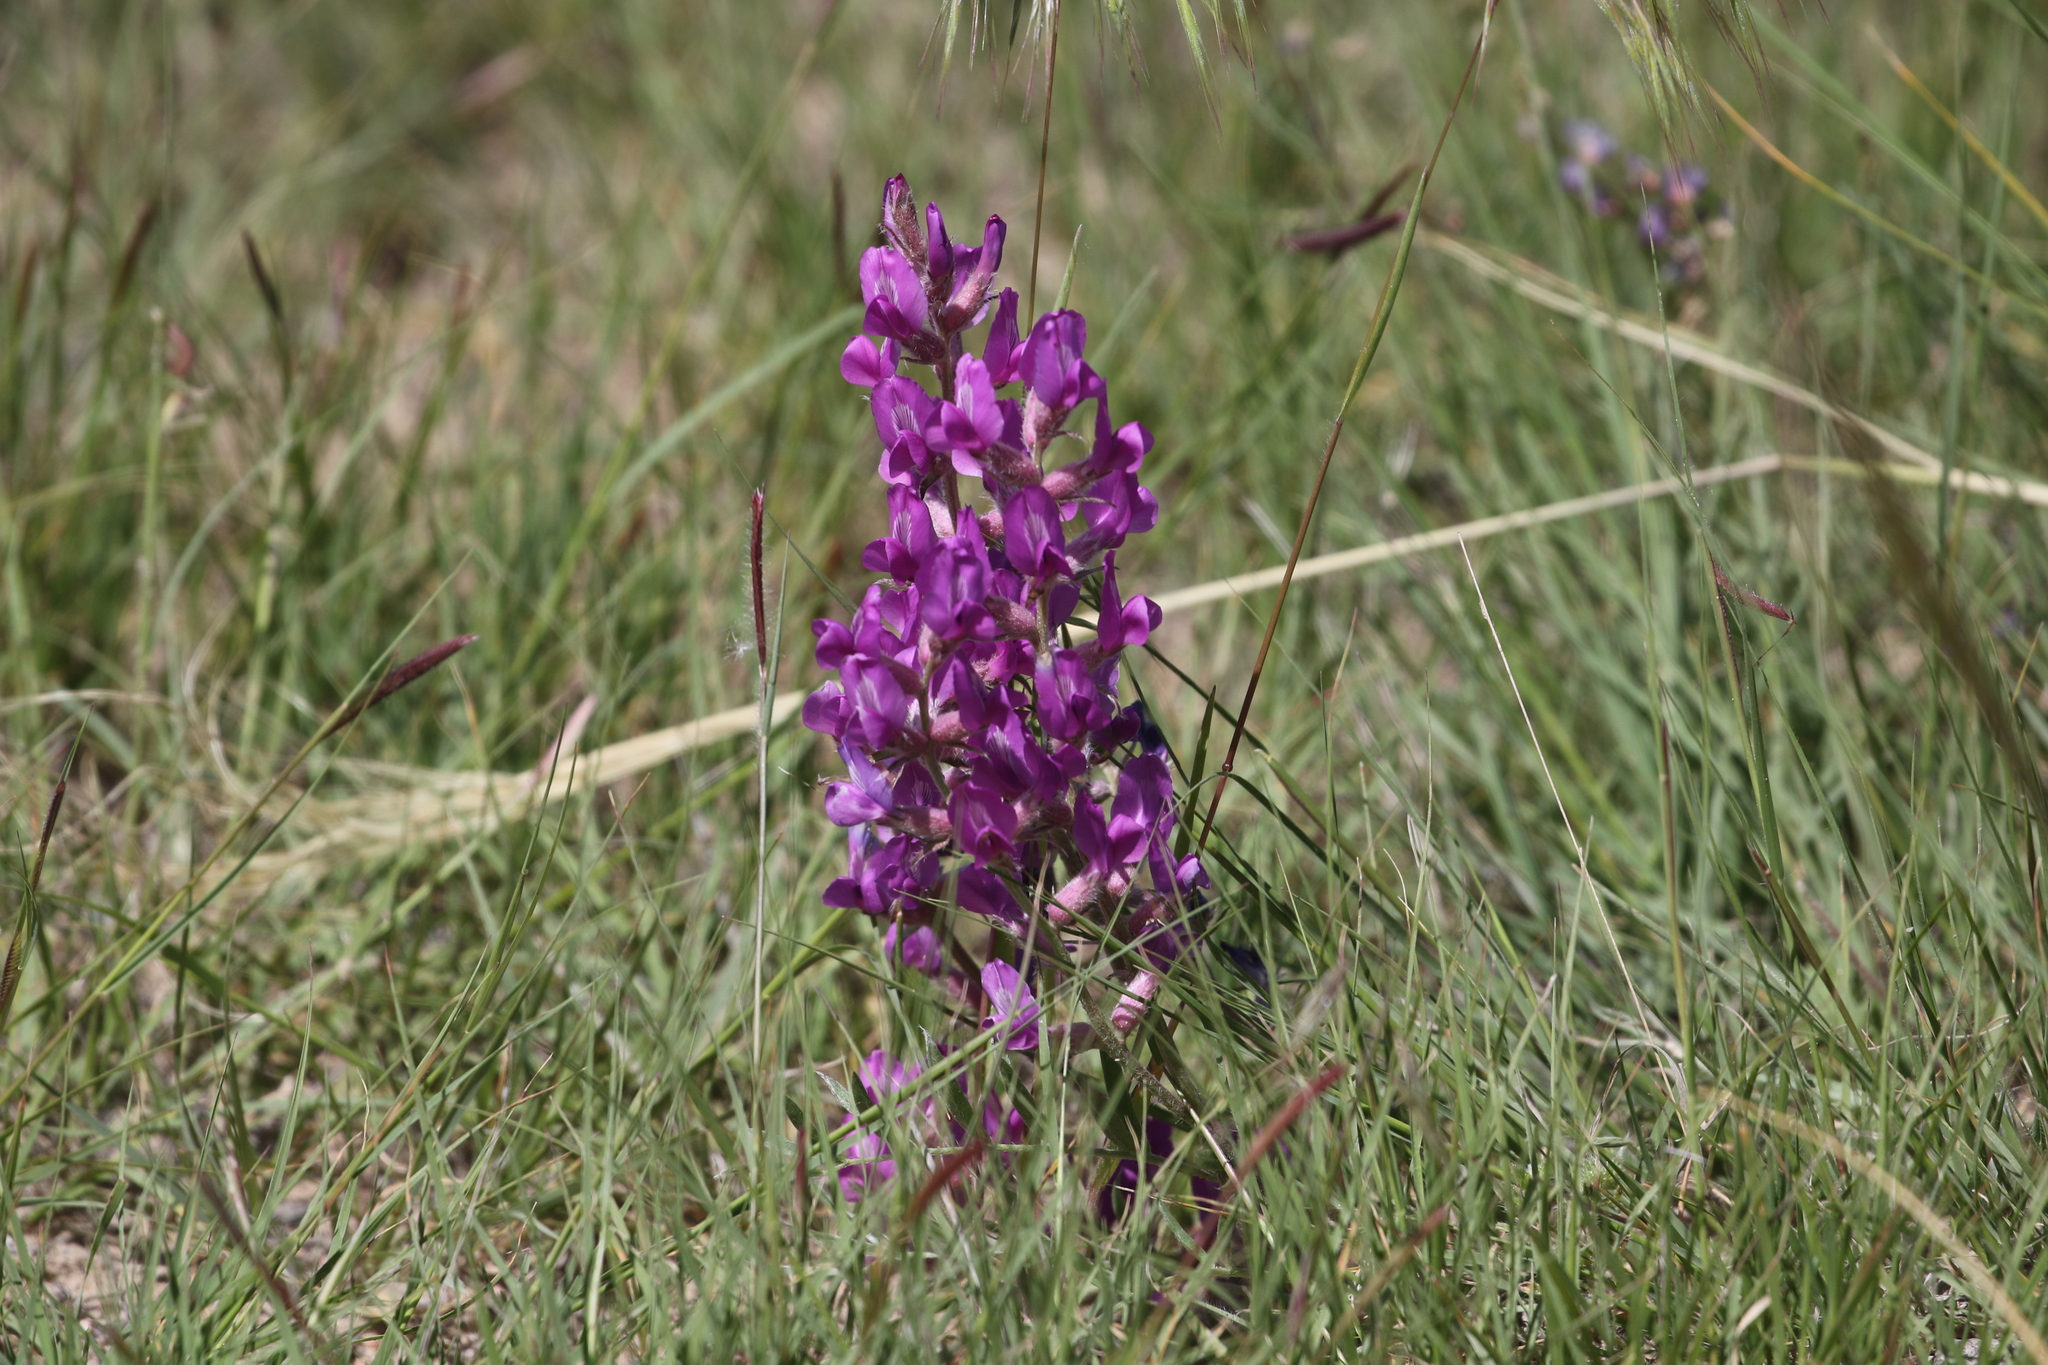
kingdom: Plantae
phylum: Tracheophyta
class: Magnoliopsida
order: Fabales
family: Fabaceae
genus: Oxytropis
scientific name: Oxytropis lambertii
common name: Purple locoweed
